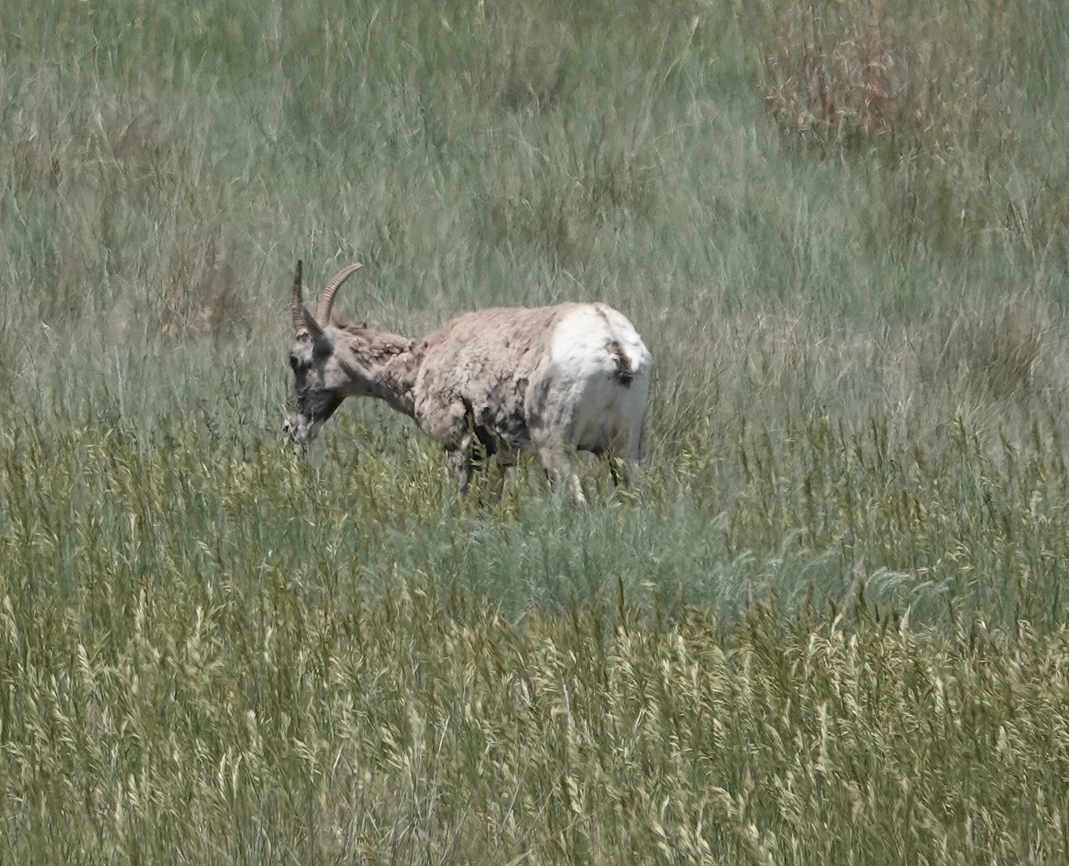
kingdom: Animalia
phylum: Chordata
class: Mammalia
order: Artiodactyla
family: Bovidae
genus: Ovis
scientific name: Ovis canadensis
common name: Bighorn sheep
